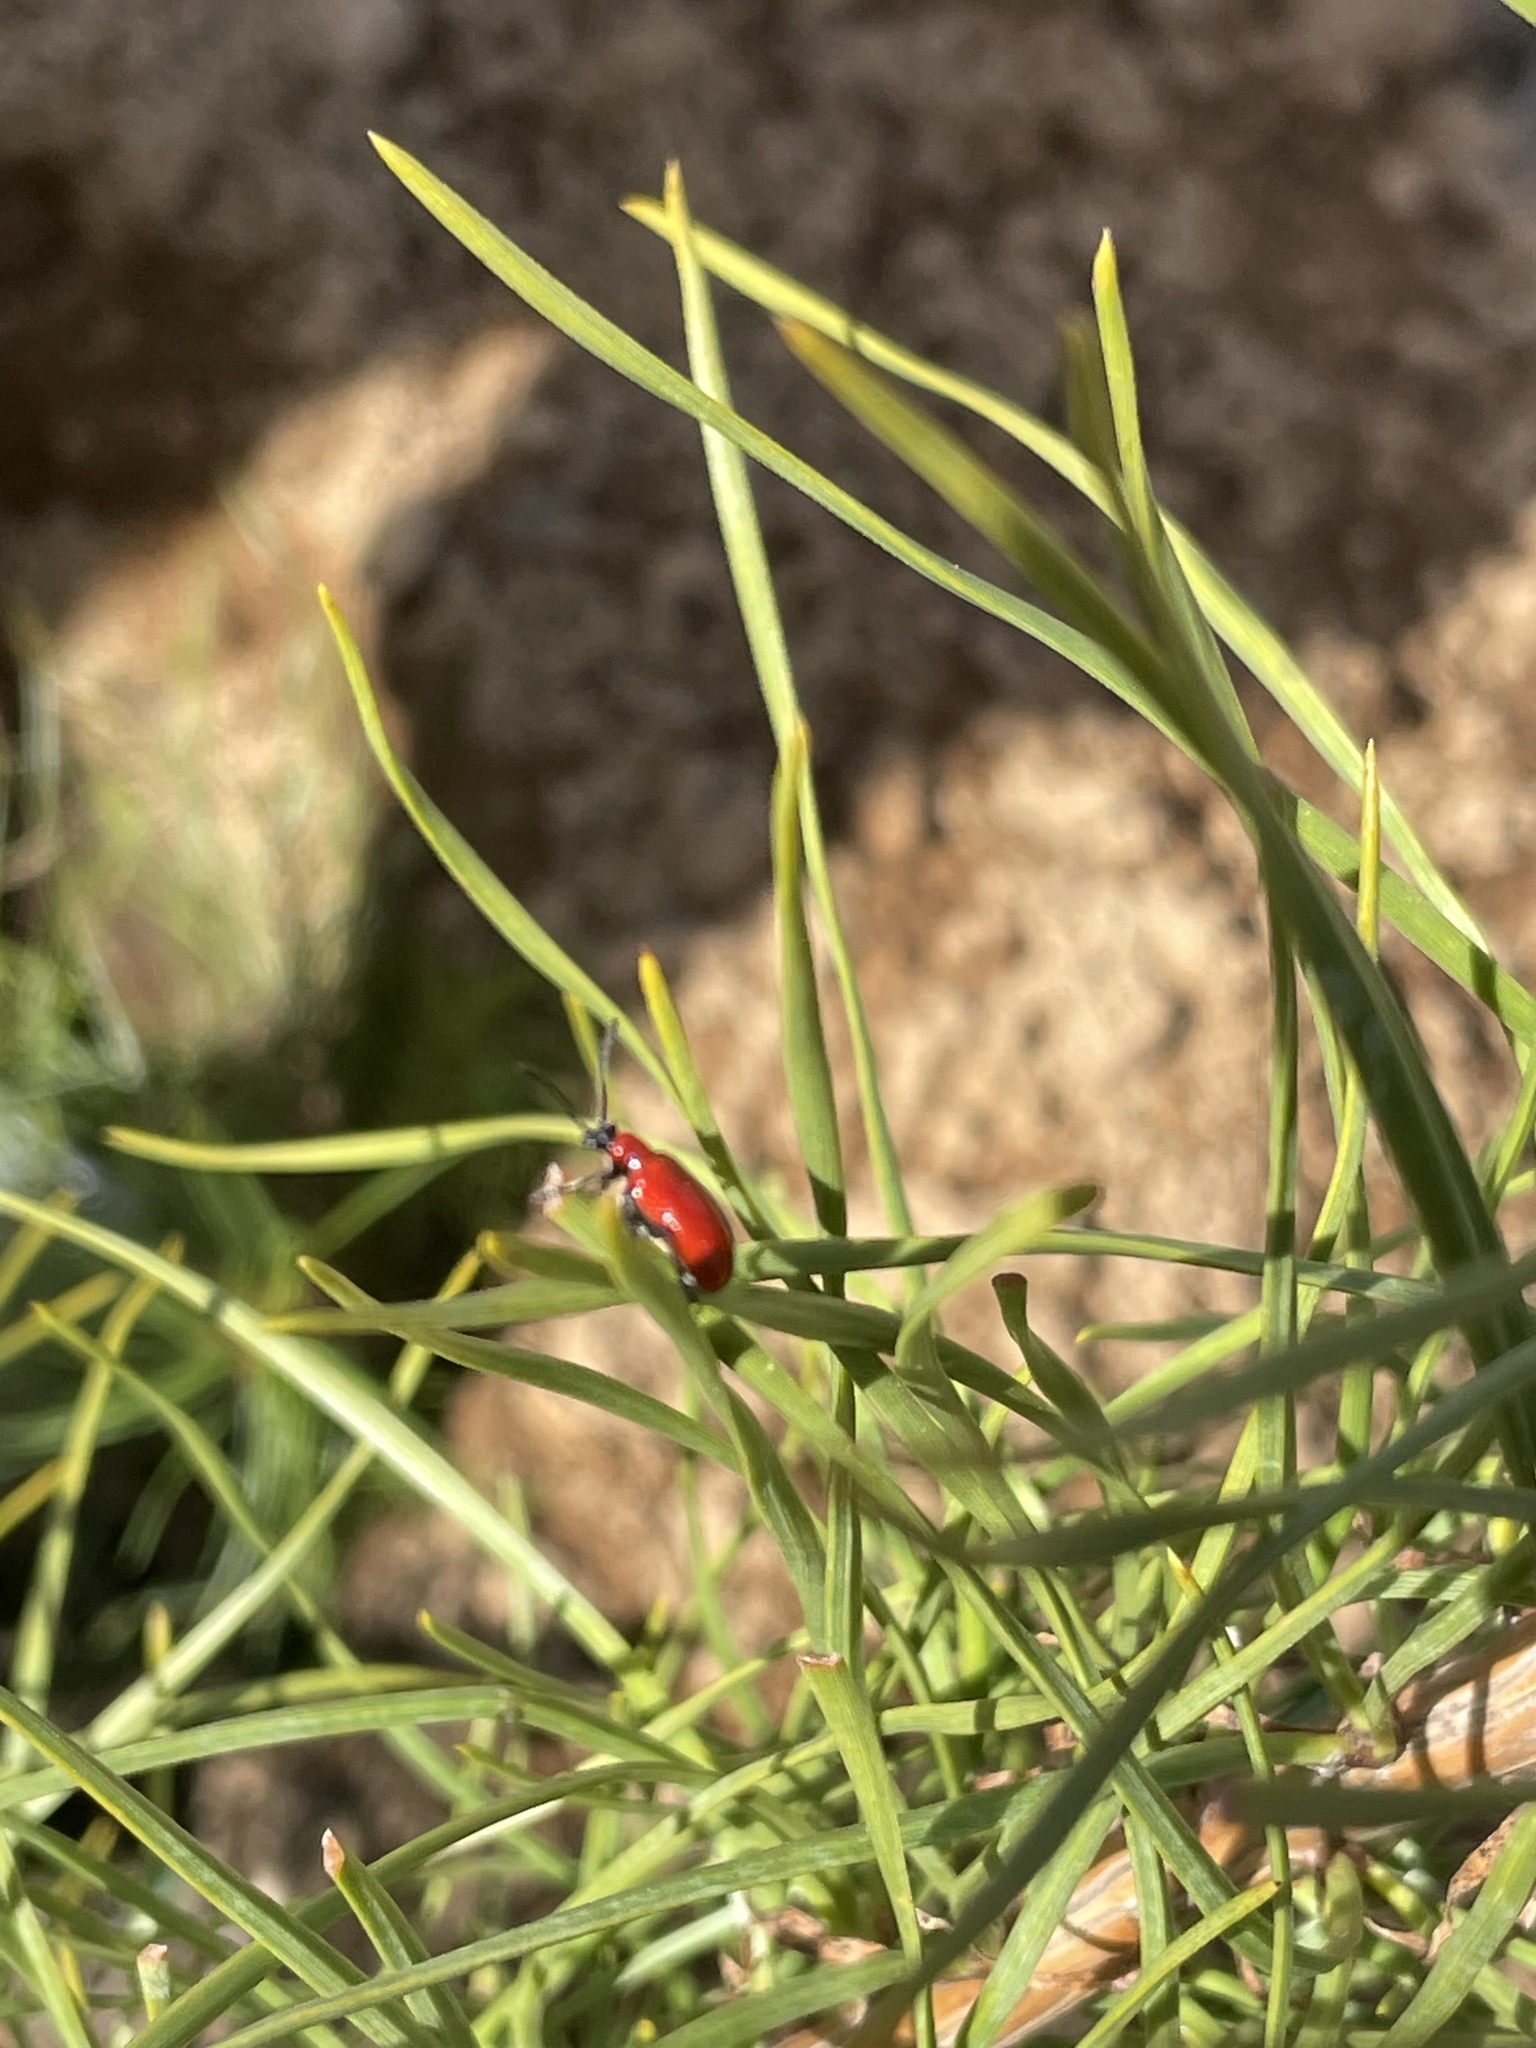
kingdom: Animalia
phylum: Arthropoda
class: Insecta
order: Coleoptera
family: Chrysomelidae
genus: Lilioceris
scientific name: Lilioceris lilii
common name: Lily beetle
